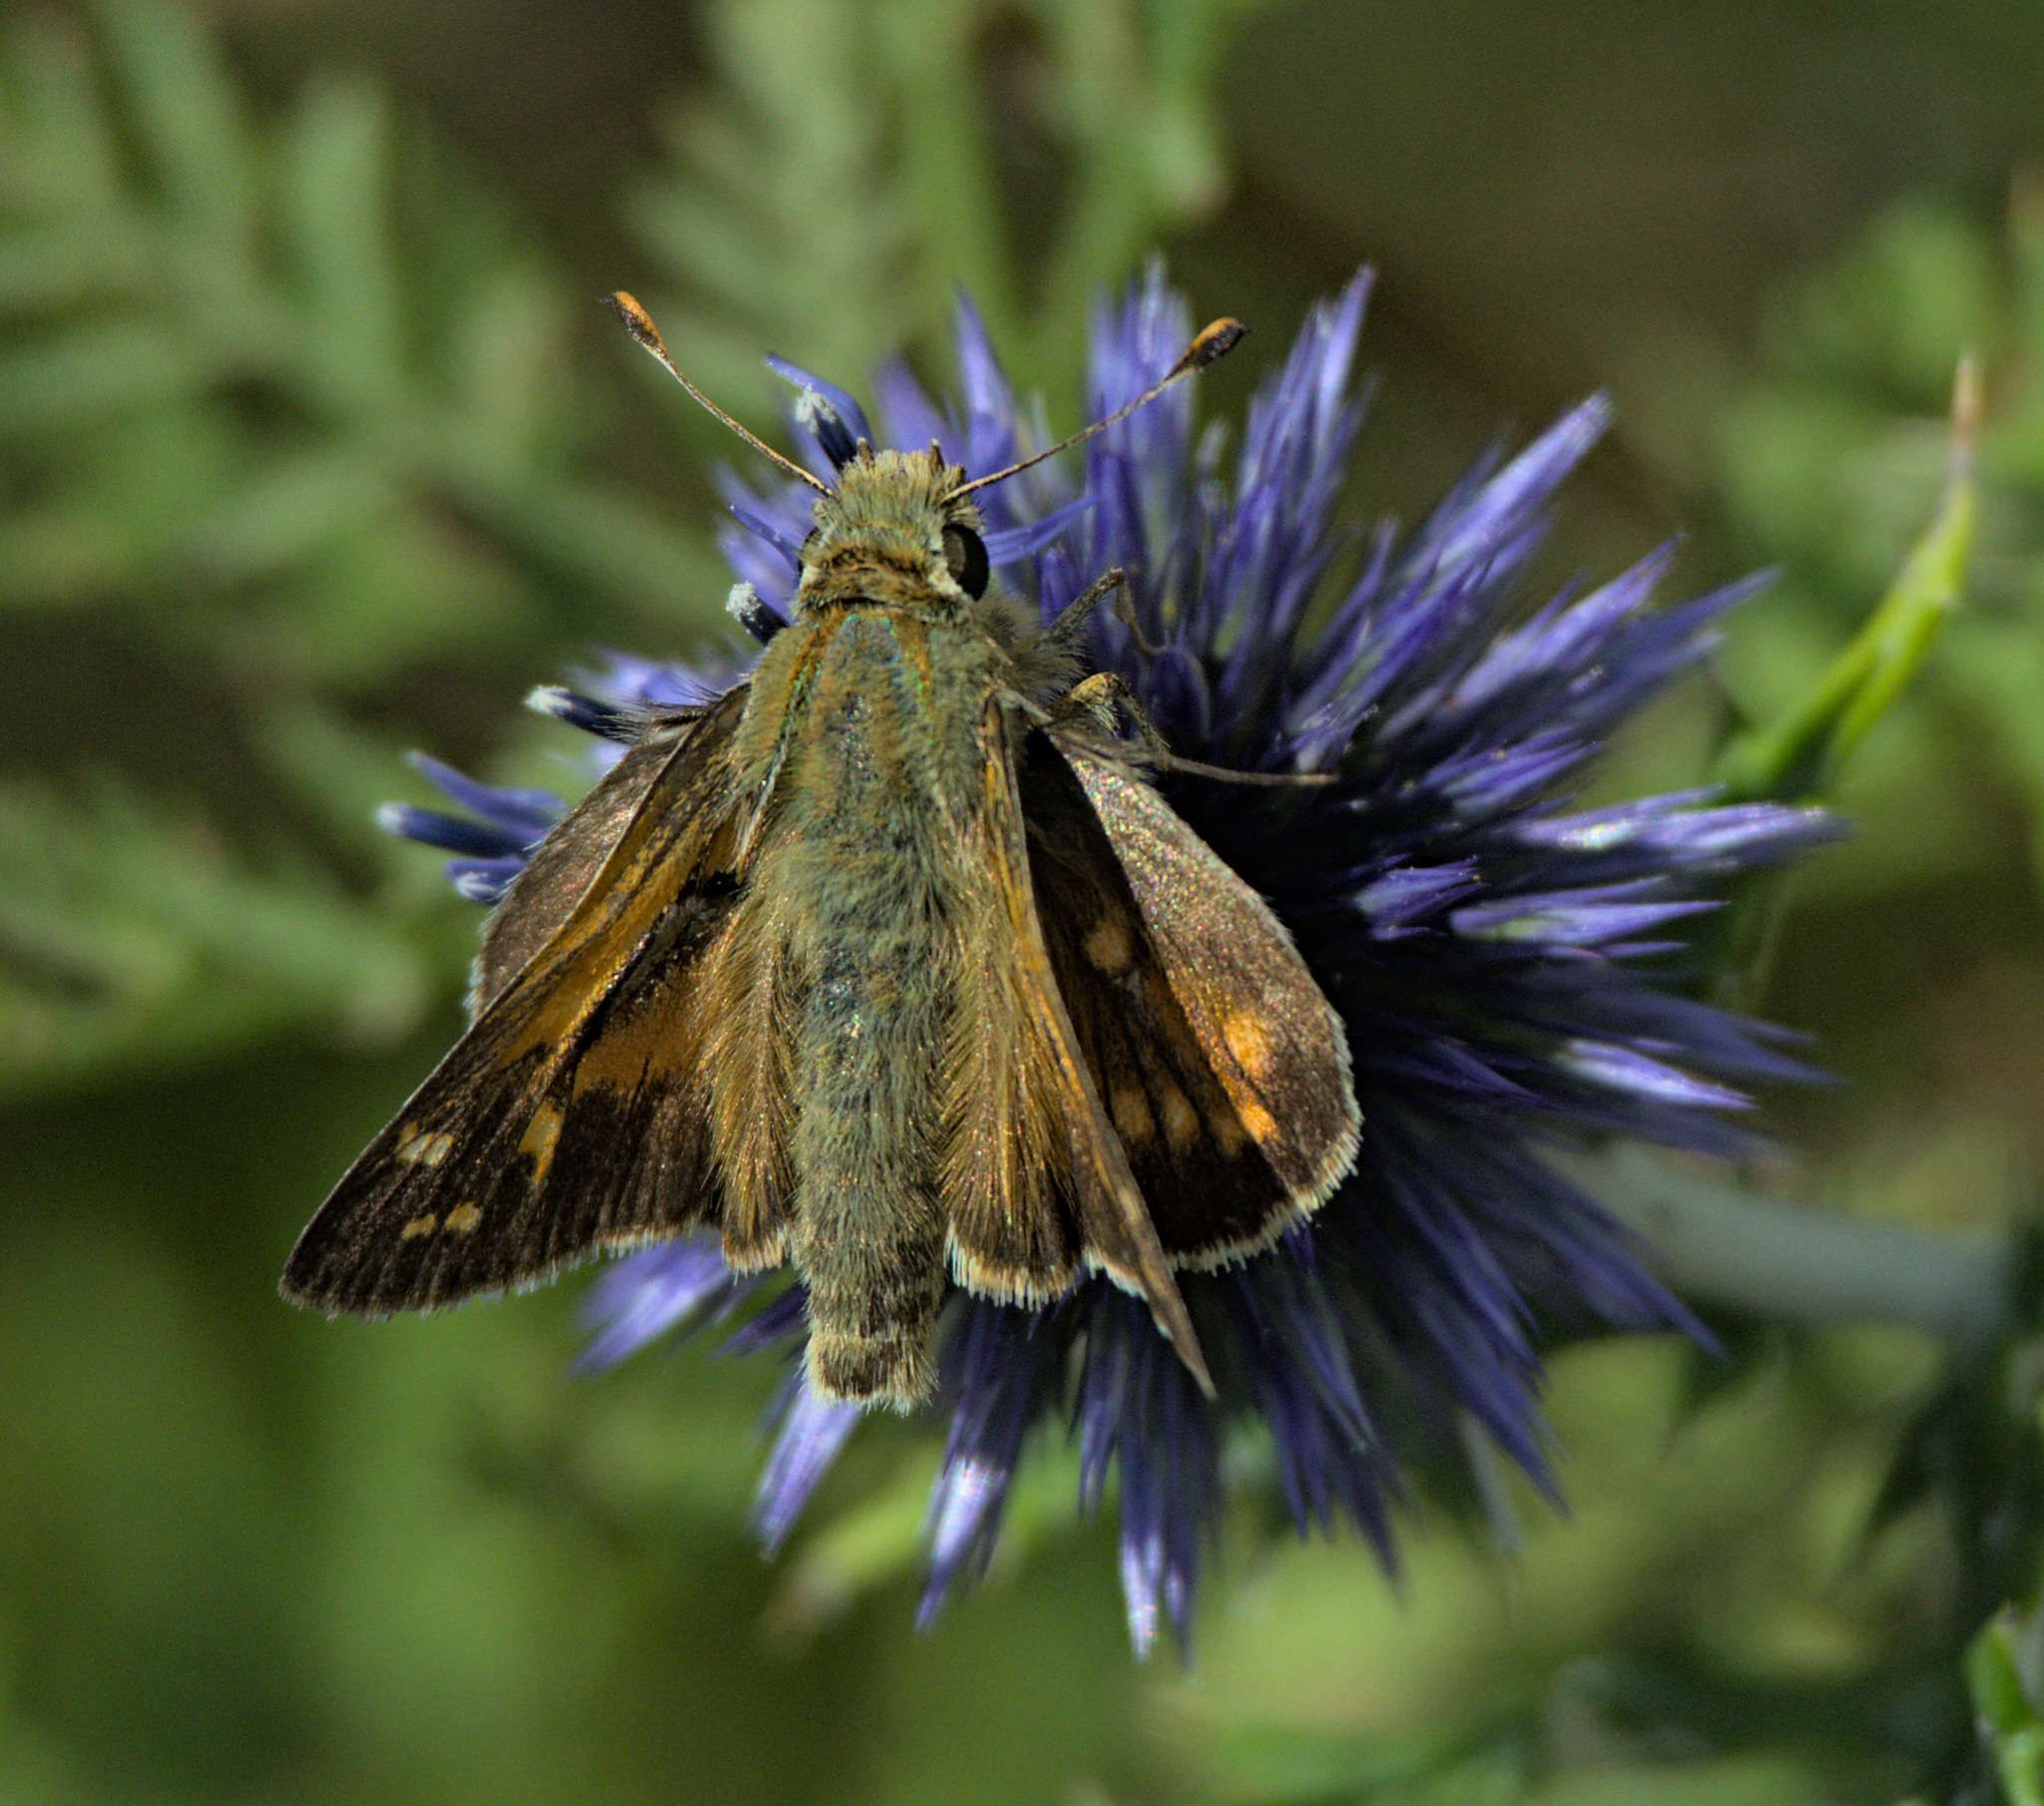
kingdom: Animalia
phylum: Arthropoda
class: Insecta
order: Lepidoptera
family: Hesperiidae
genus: Hesperia
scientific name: Hesperia comma
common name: Common branded skipper
